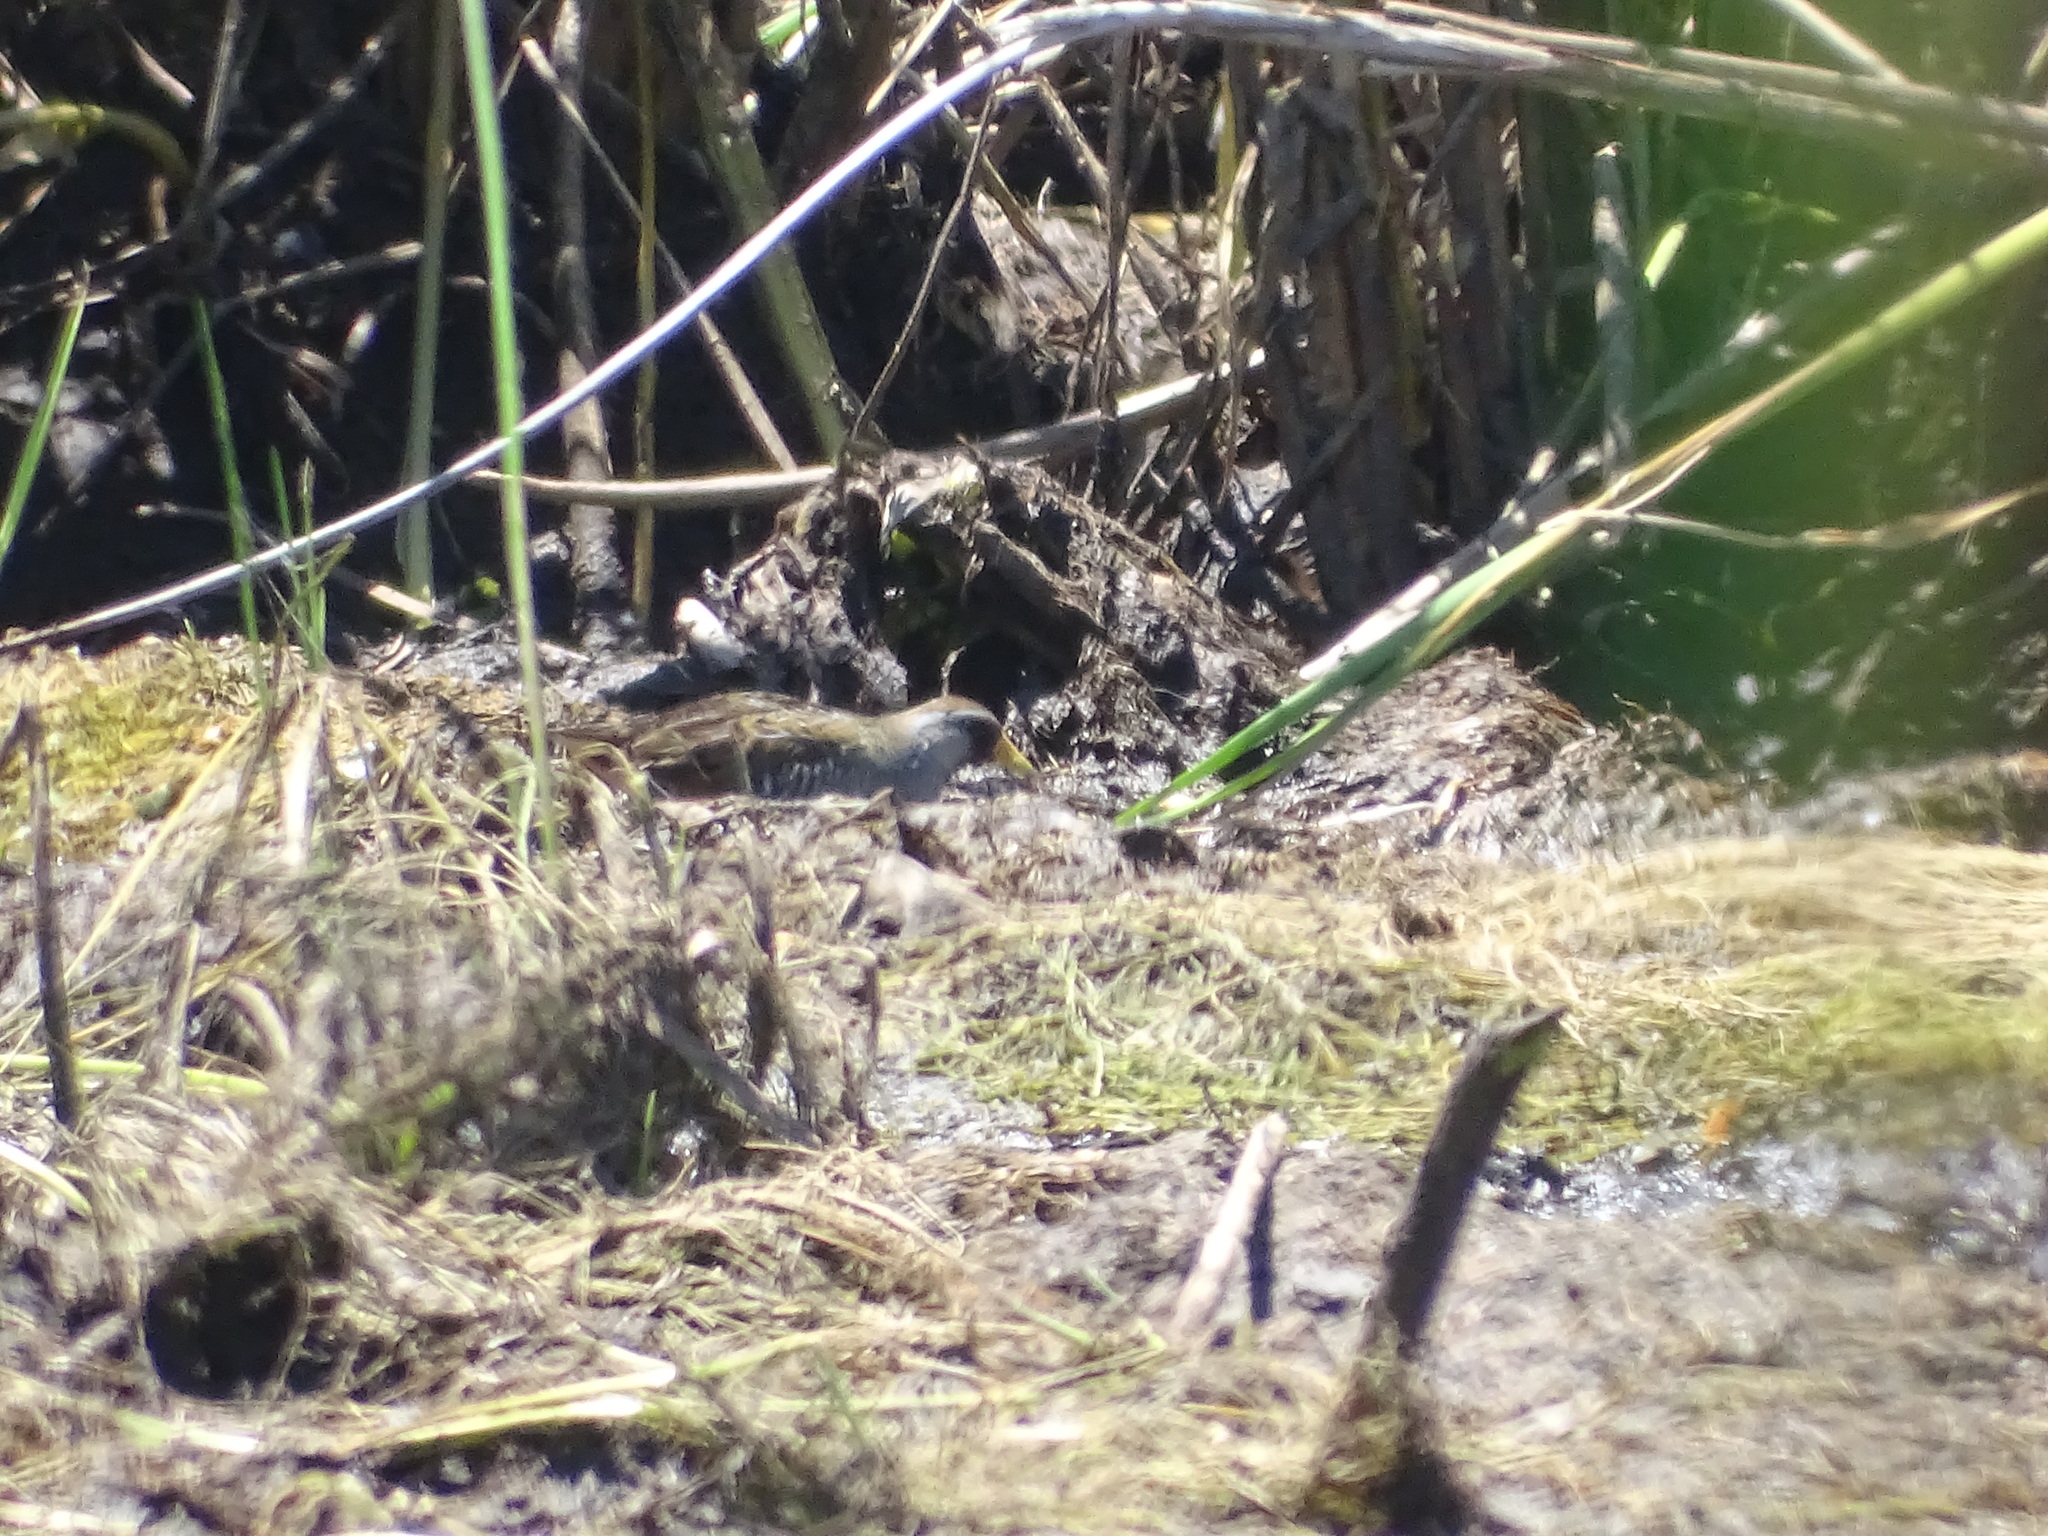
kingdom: Animalia
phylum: Chordata
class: Aves
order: Gruiformes
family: Rallidae
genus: Porzana
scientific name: Porzana carolina
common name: Sora
